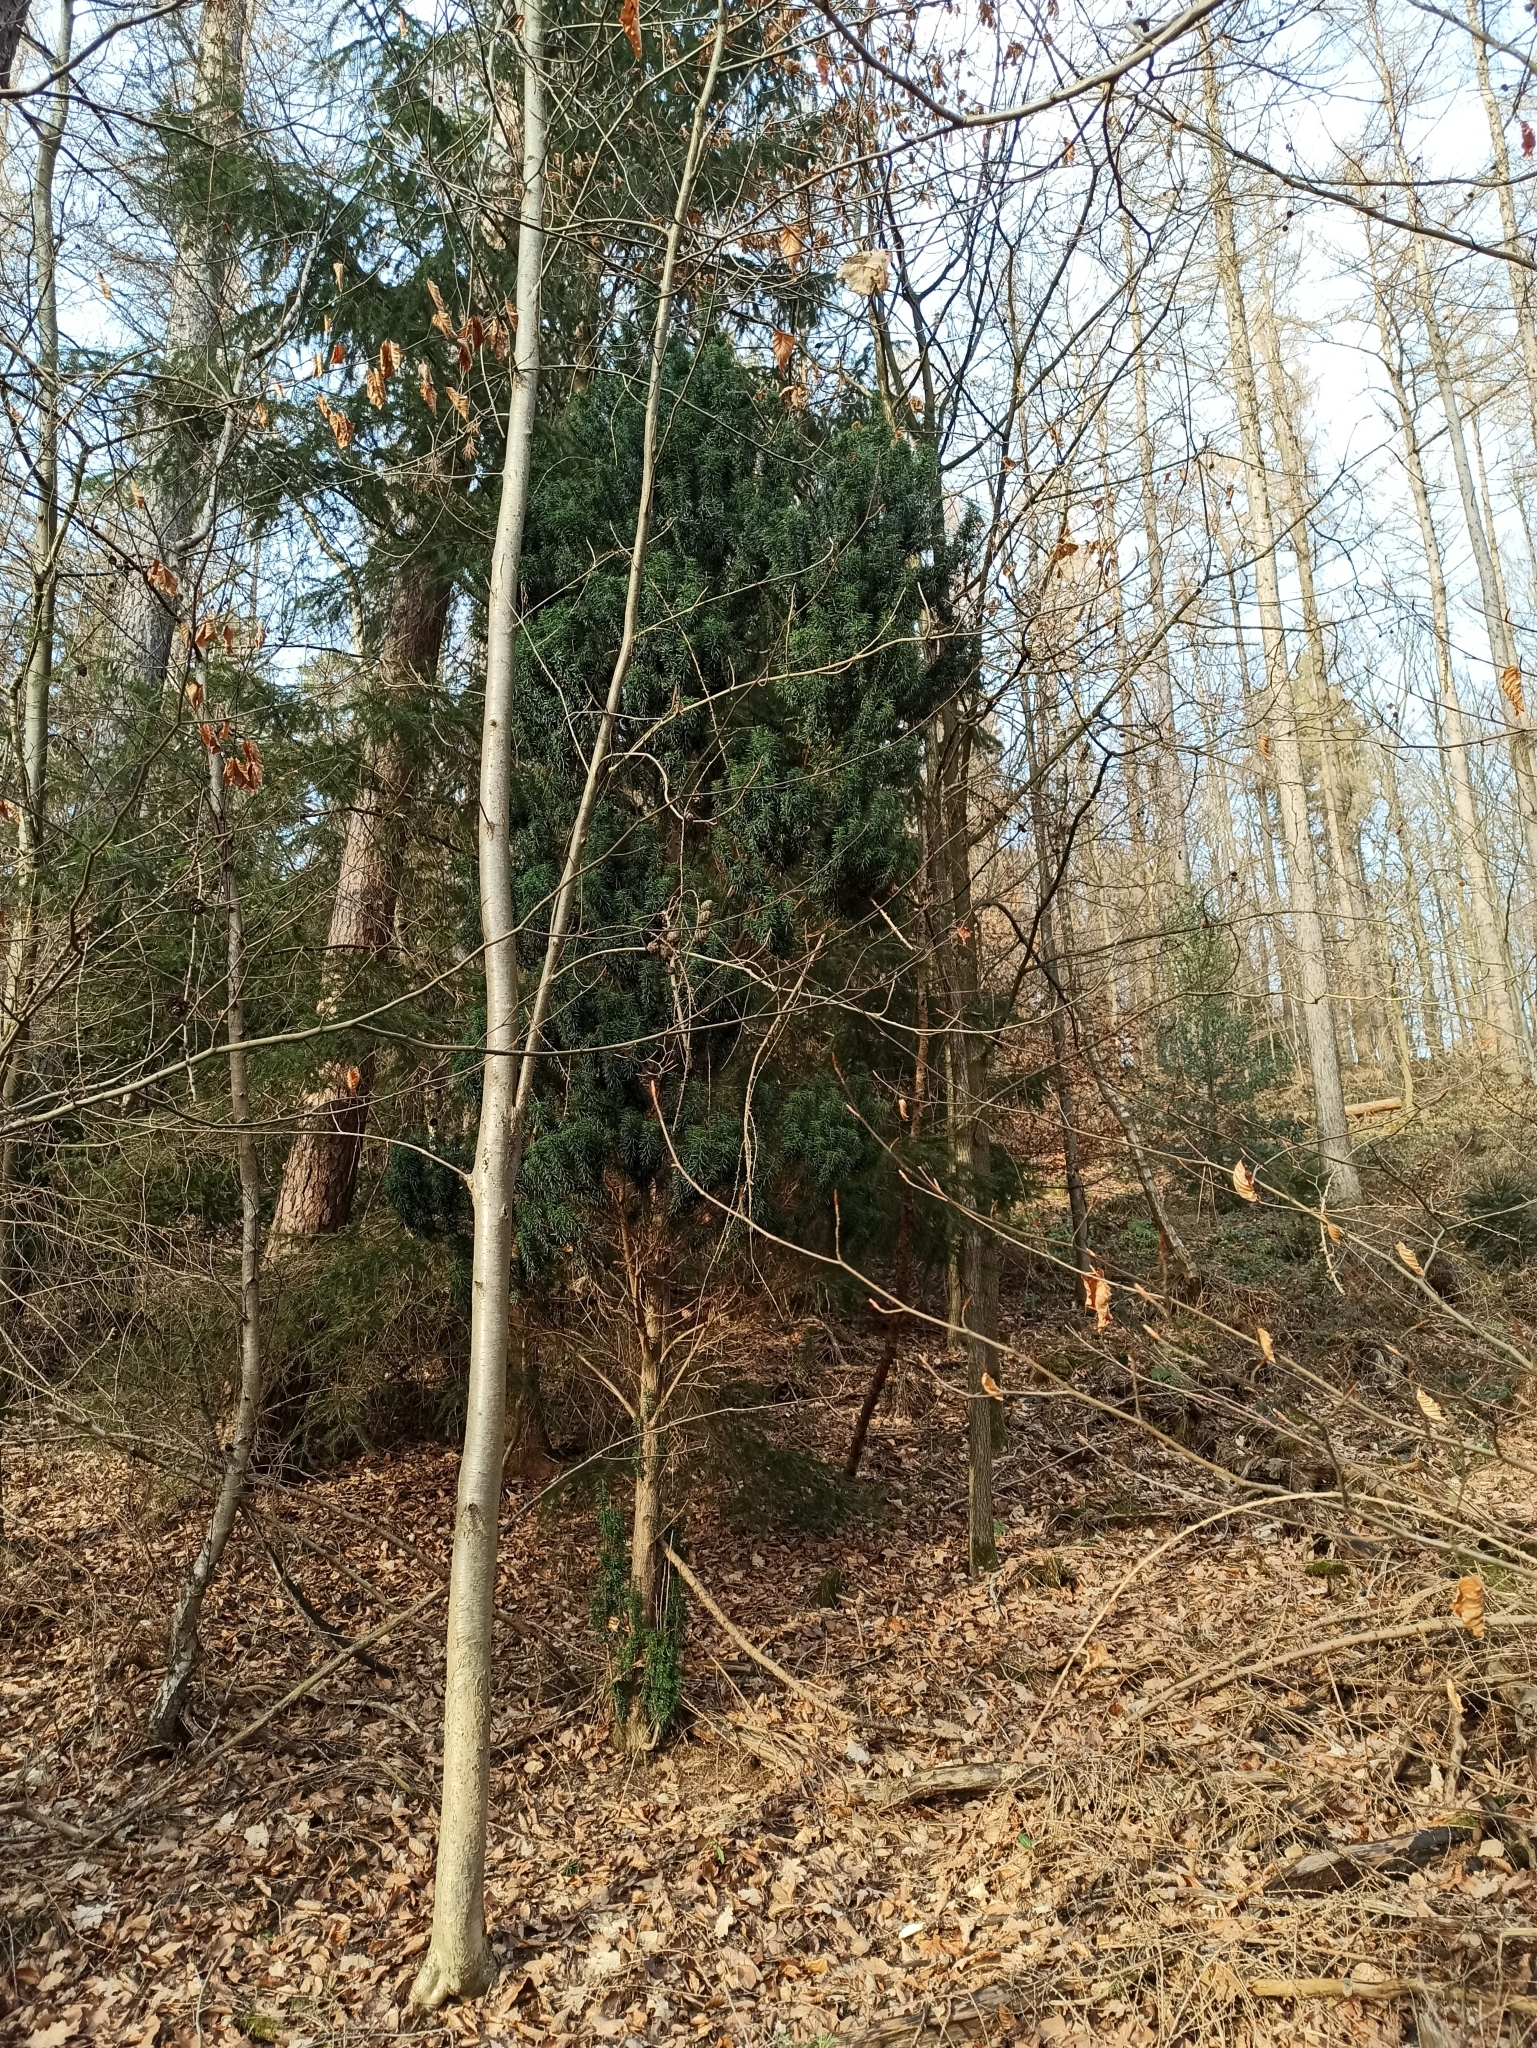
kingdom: Plantae
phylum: Tracheophyta
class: Pinopsida
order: Pinales
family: Taxaceae
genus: Taxus
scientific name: Taxus baccata
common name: Yew
